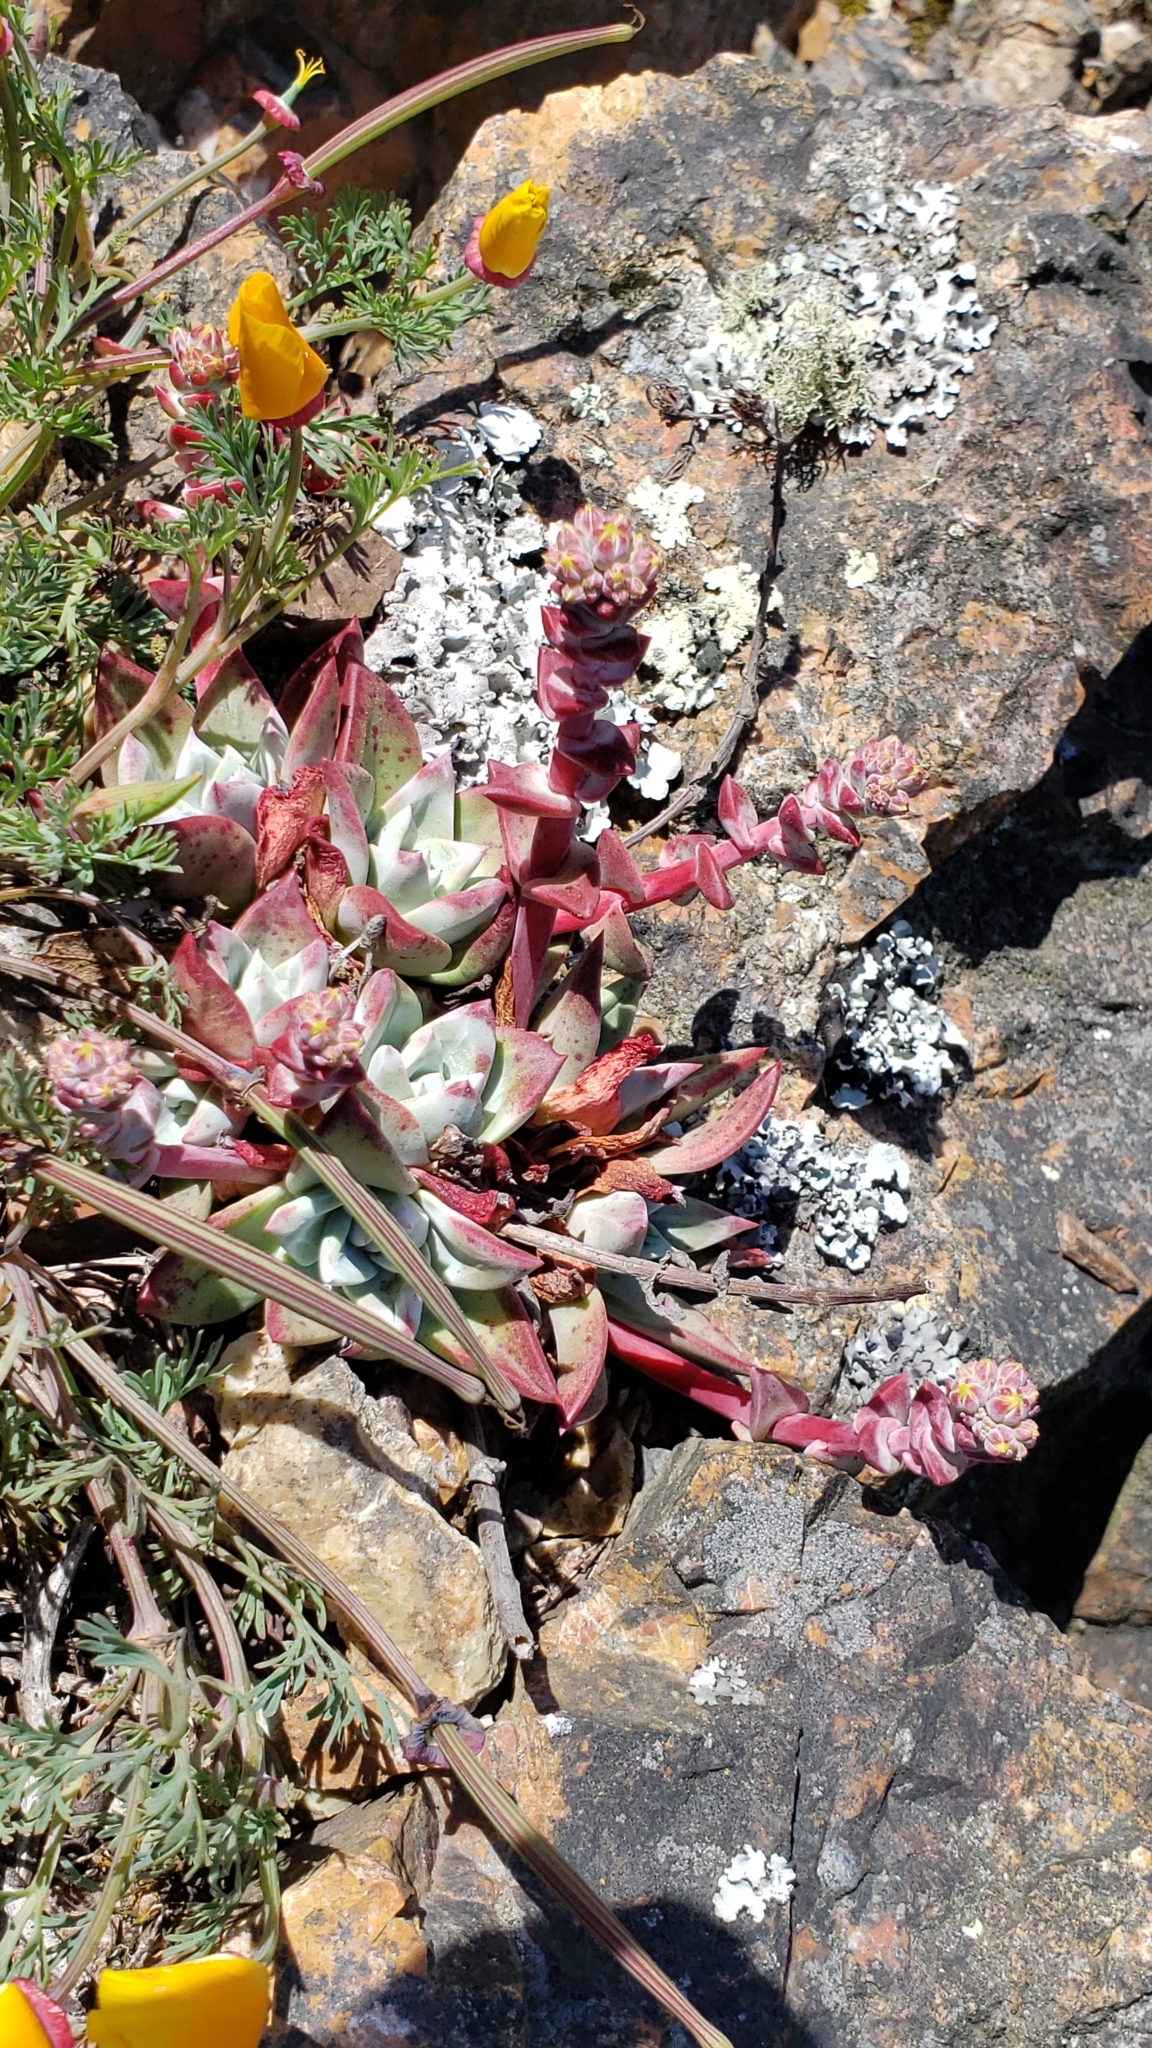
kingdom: Plantae
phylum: Tracheophyta
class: Magnoliopsida
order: Saxifragales
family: Crassulaceae
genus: Dudleya
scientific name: Dudleya farinosa
